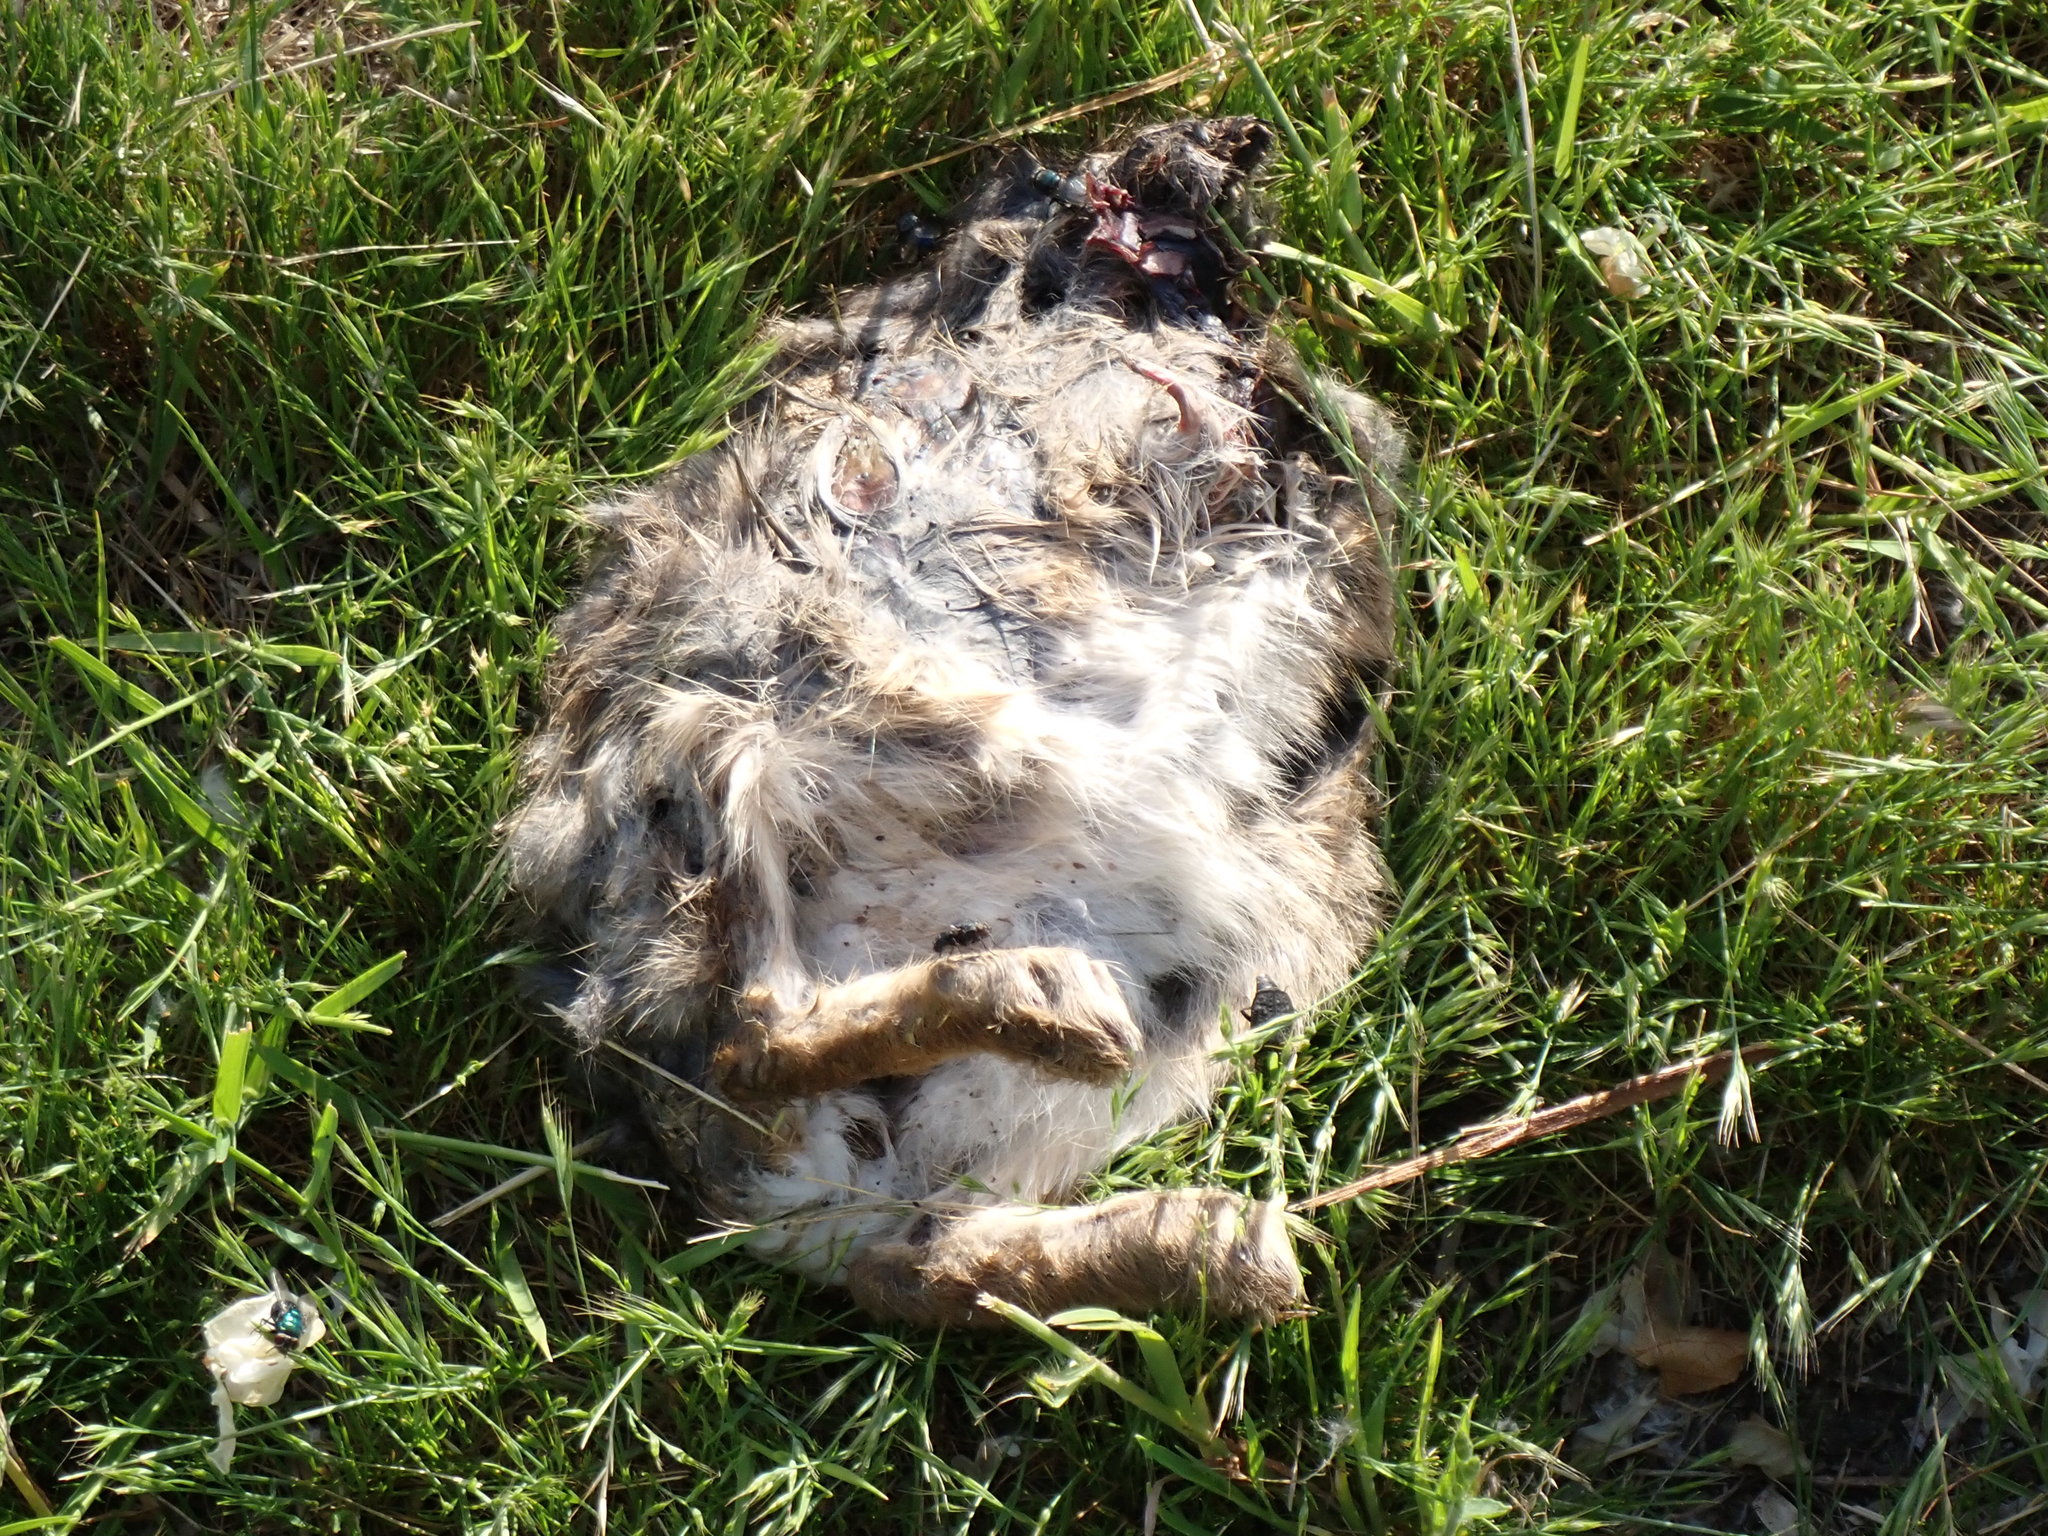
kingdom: Animalia
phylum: Chordata
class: Mammalia
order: Lagomorpha
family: Leporidae
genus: Sylvilagus
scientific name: Sylvilagus floridanus
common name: Eastern cottontail
